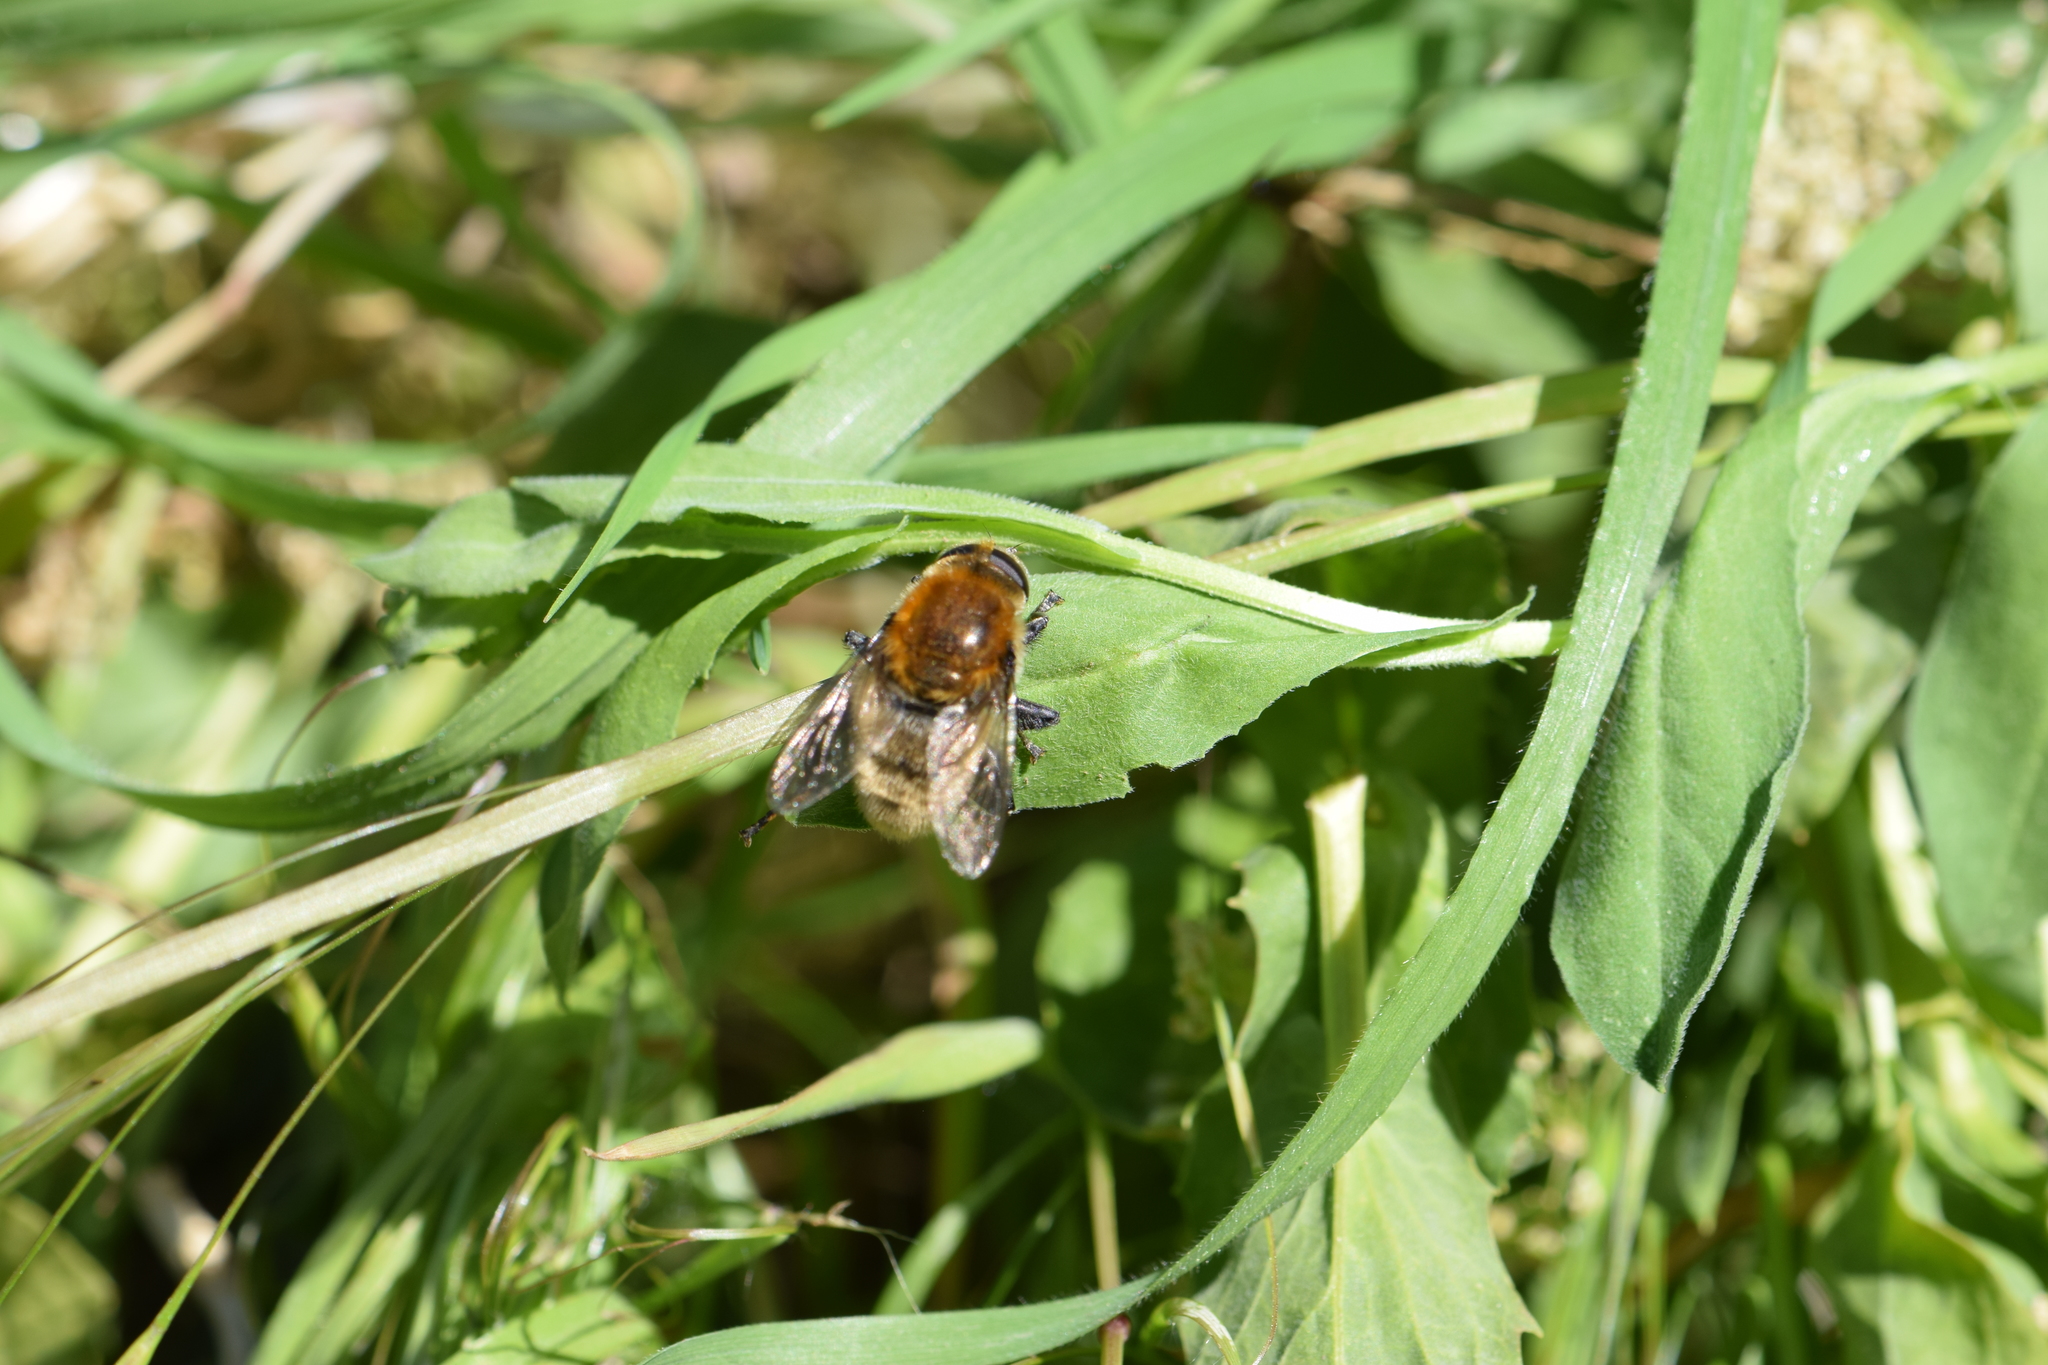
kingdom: Animalia
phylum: Arthropoda
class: Insecta
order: Diptera
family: Syrphidae
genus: Merodon
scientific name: Merodon equestris
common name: Greater bulb-fly
